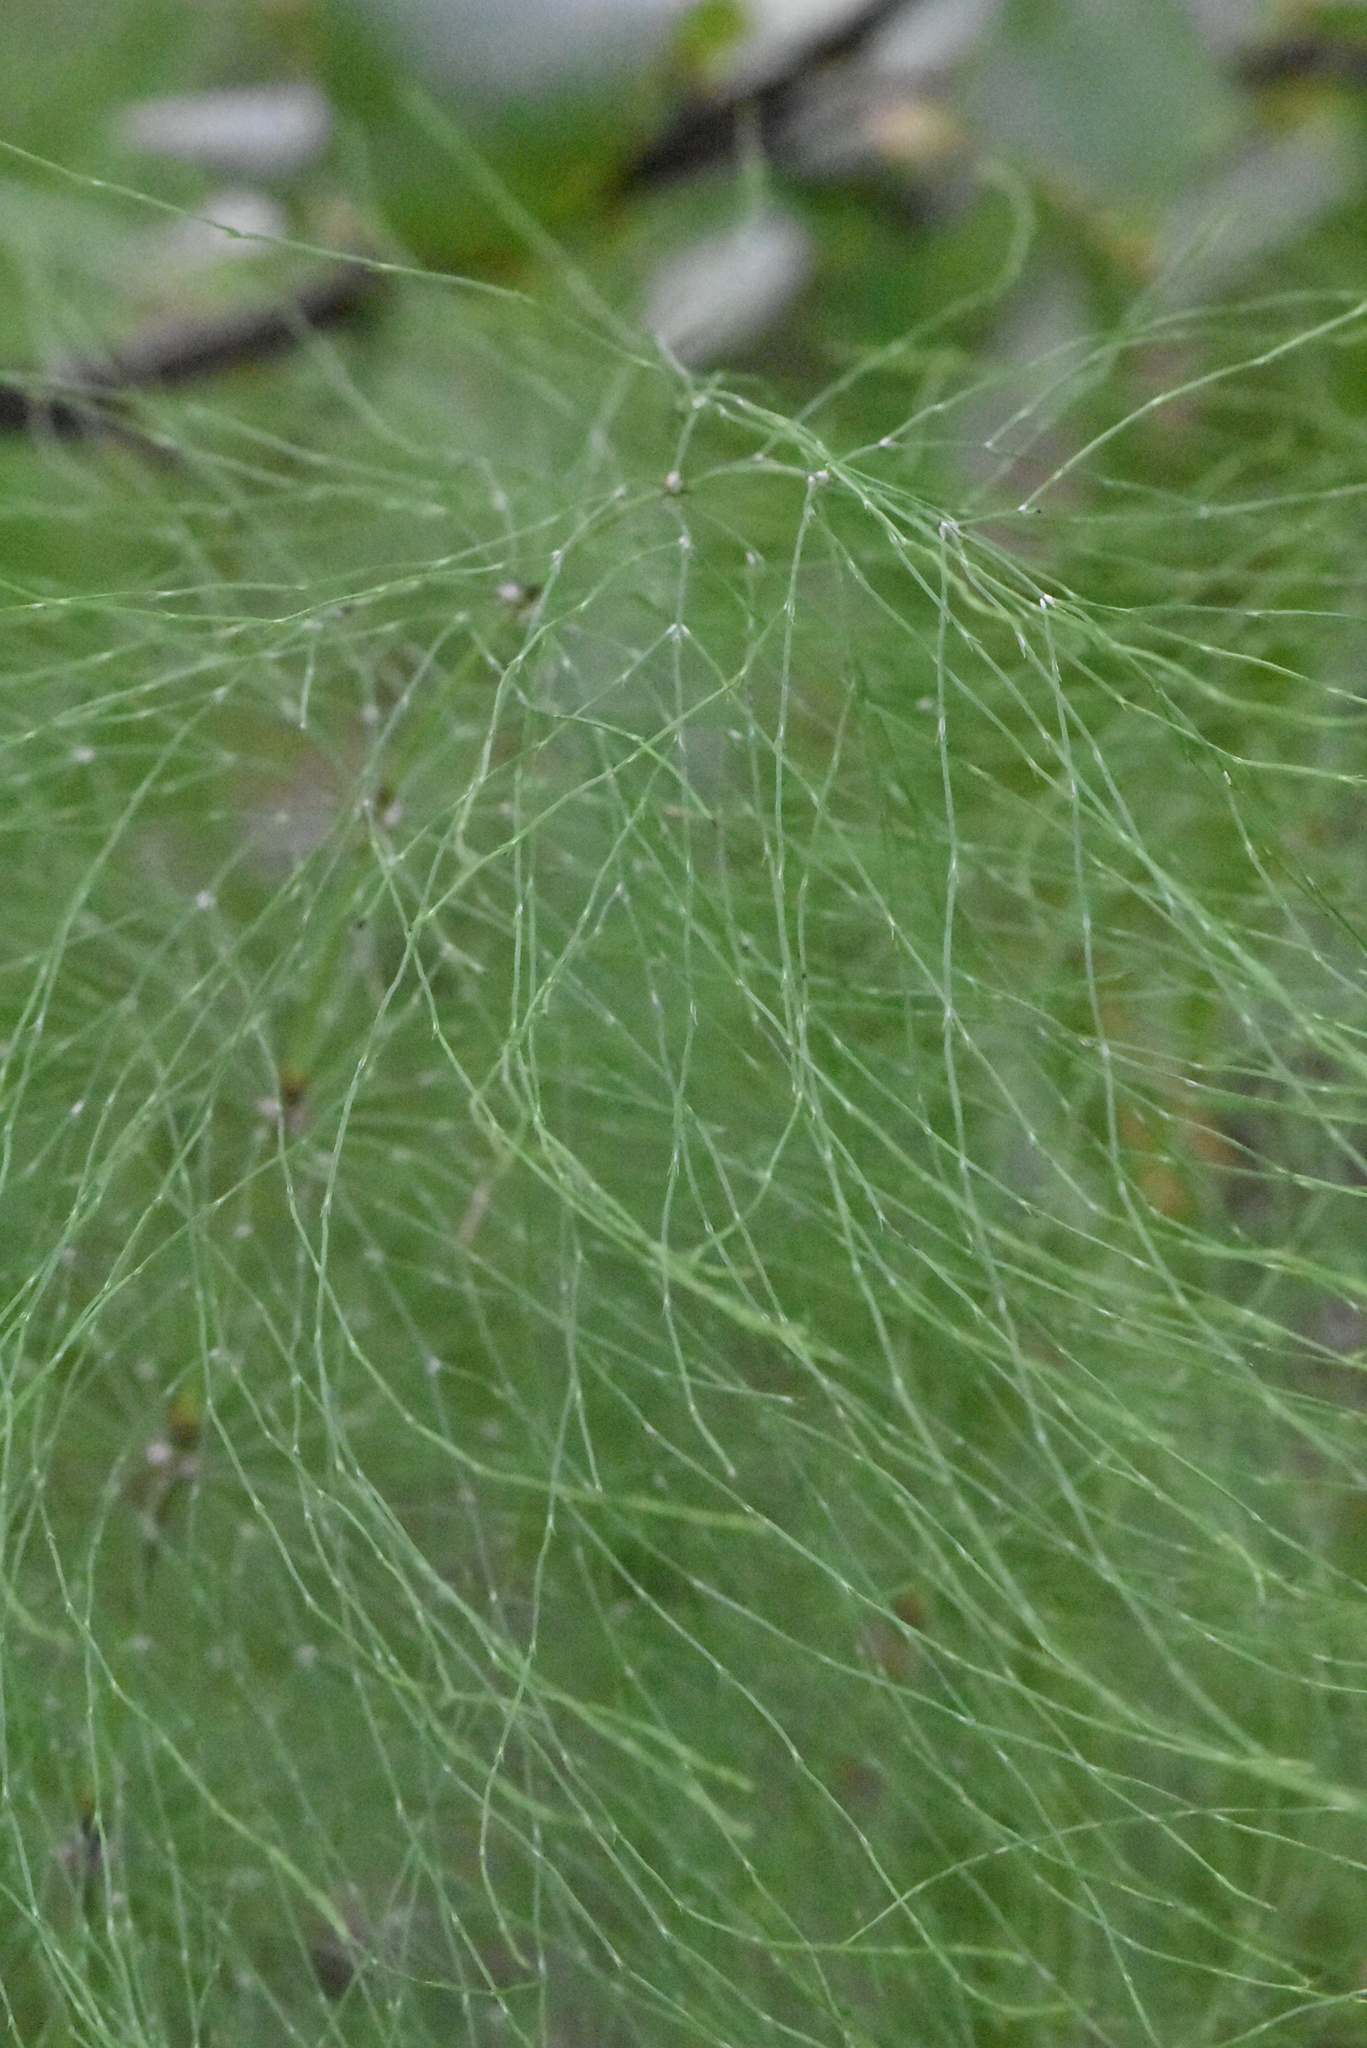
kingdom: Plantae
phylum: Tracheophyta
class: Polypodiopsida
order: Equisetales
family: Equisetaceae
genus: Equisetum
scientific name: Equisetum sylvaticum
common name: Wood horsetail
